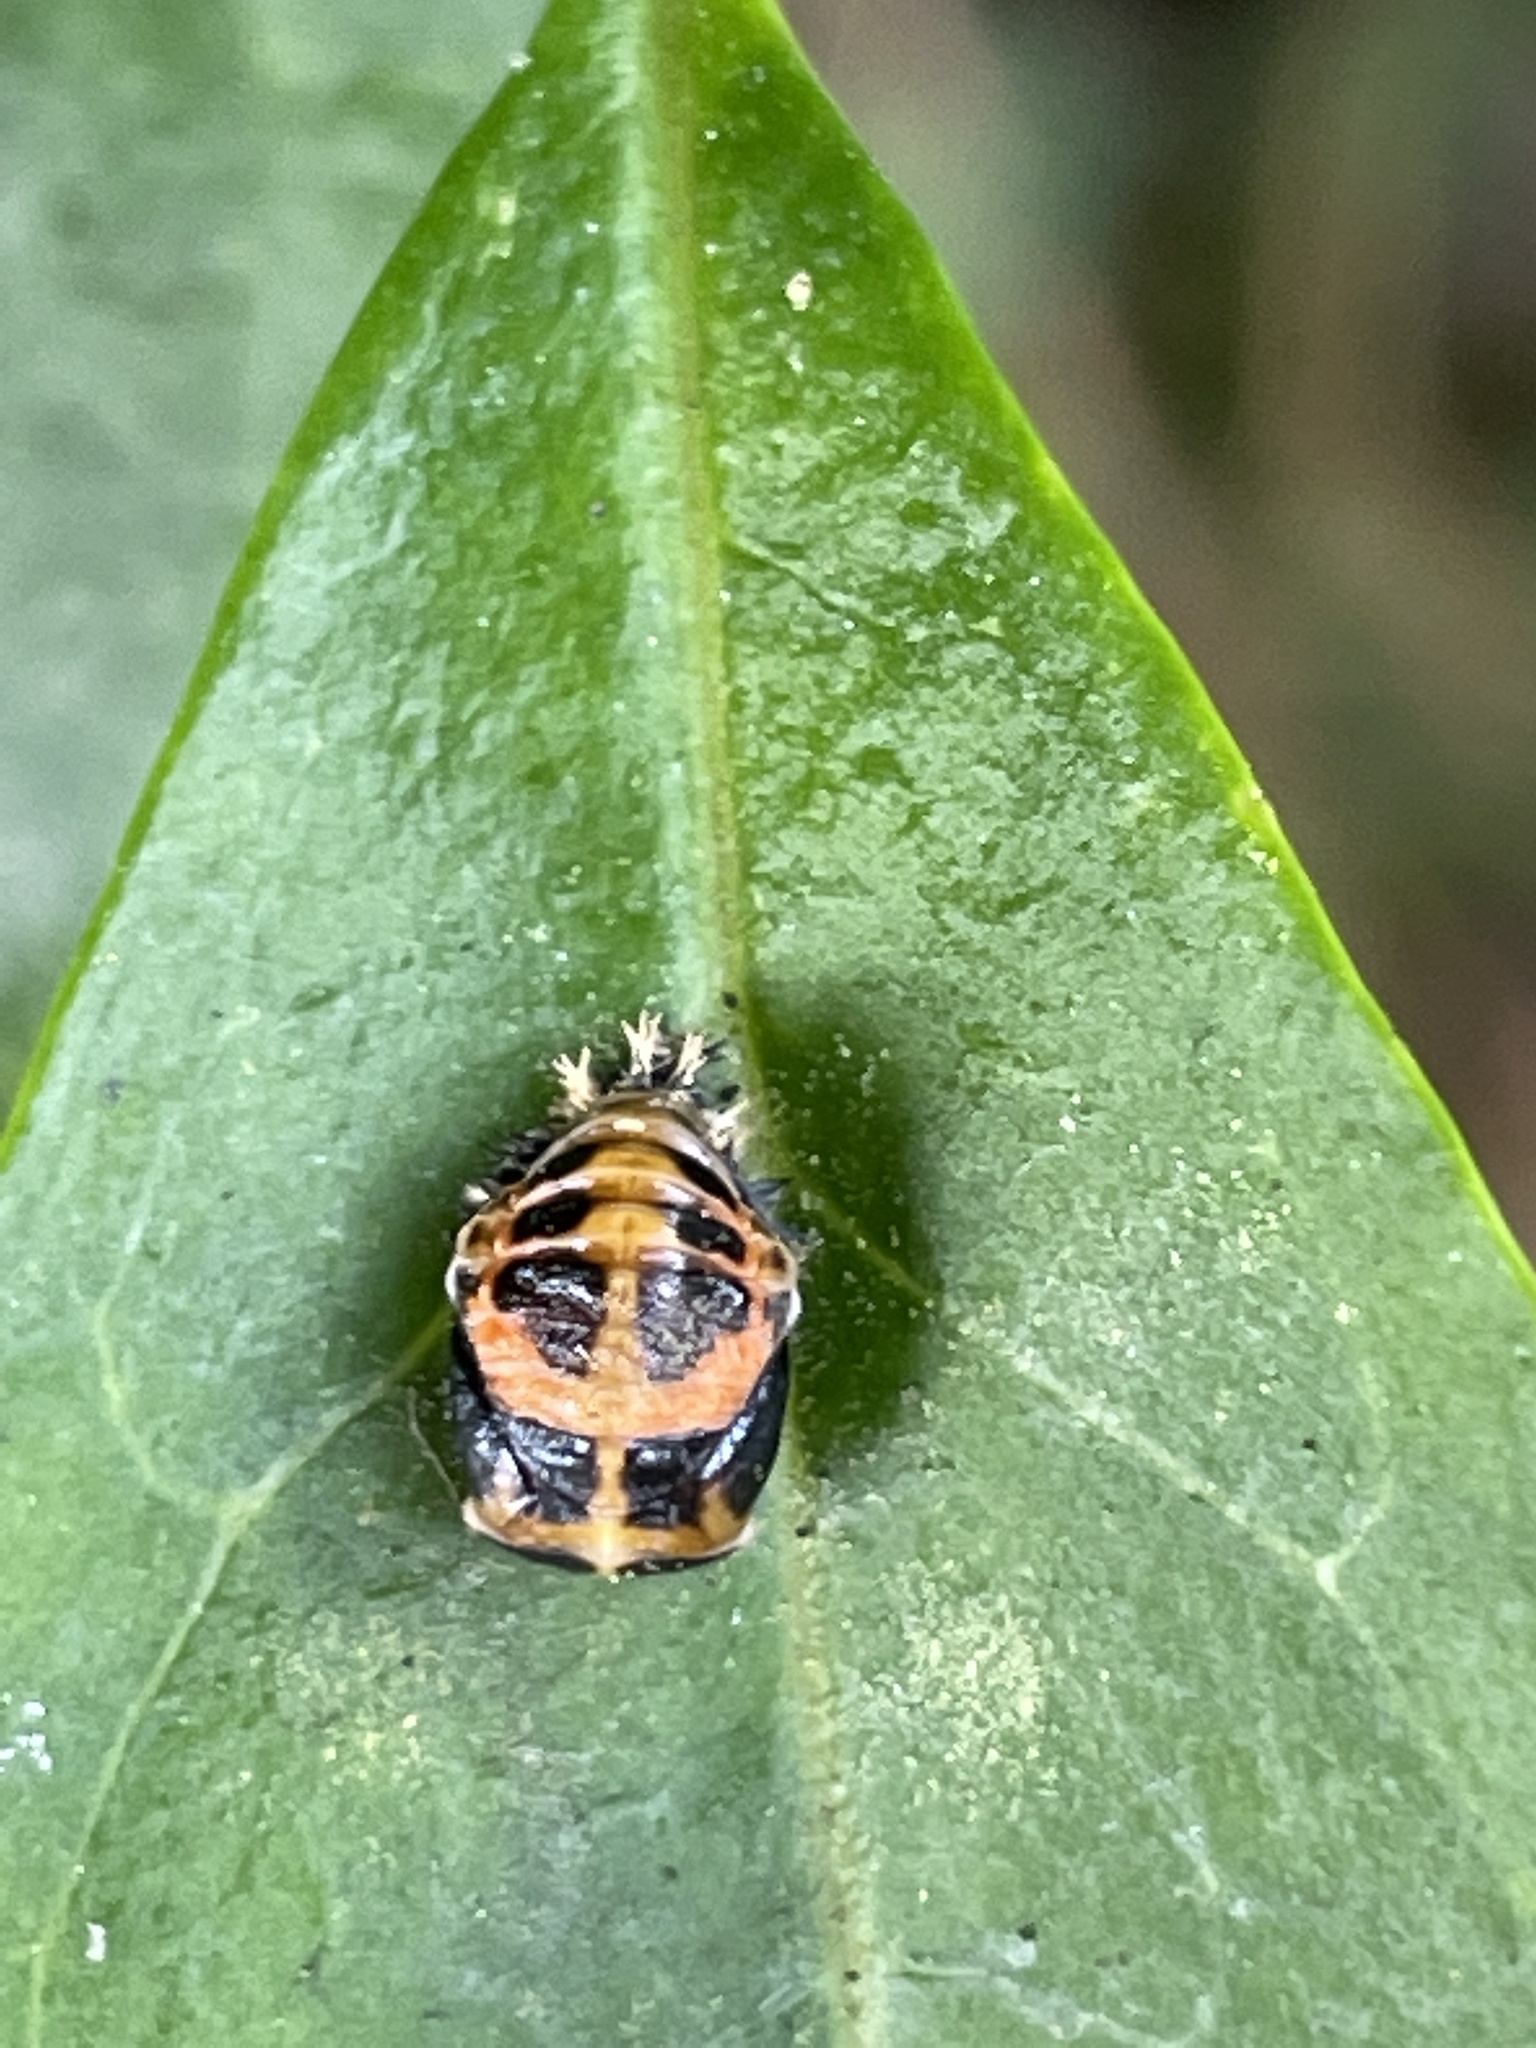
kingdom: Animalia
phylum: Arthropoda
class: Insecta
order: Coleoptera
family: Coccinellidae
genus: Harmonia
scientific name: Harmonia axyridis
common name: Harlequin ladybird
